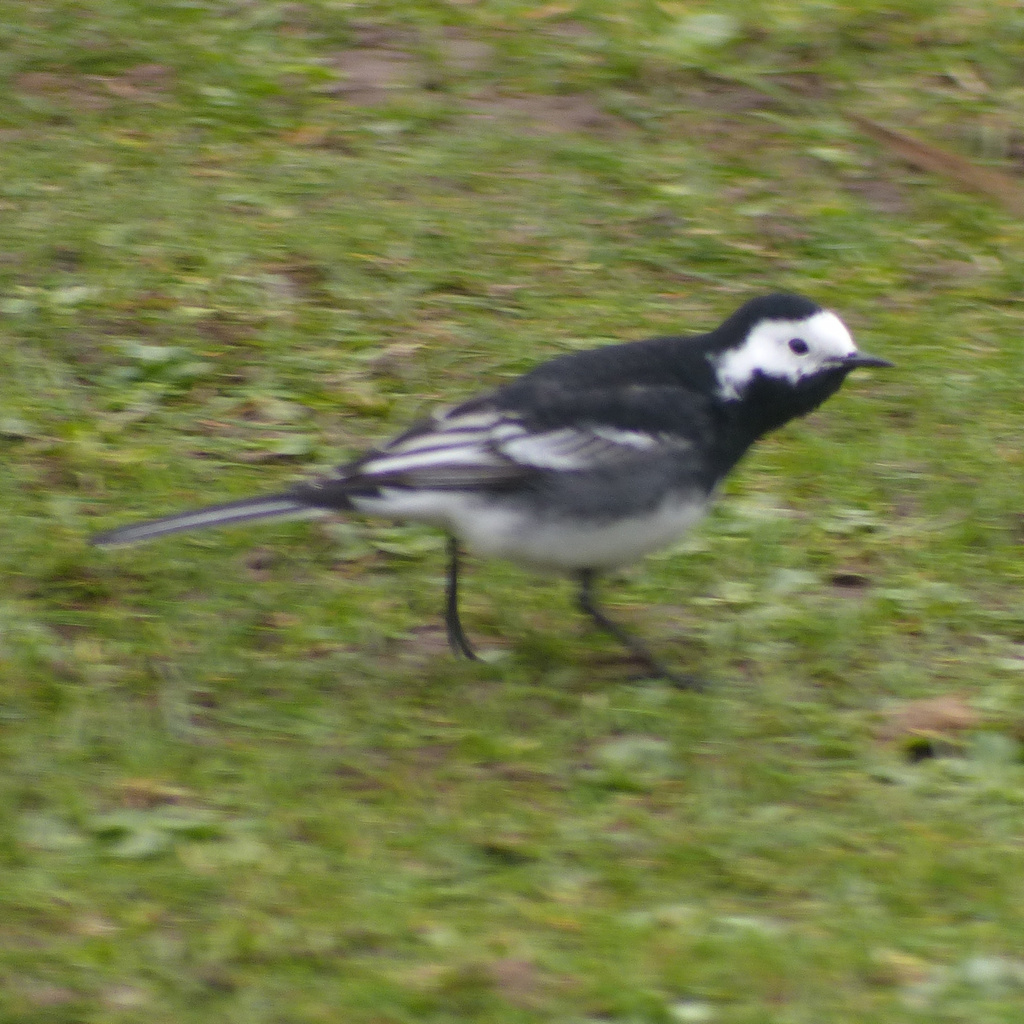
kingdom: Animalia
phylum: Chordata
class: Aves
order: Passeriformes
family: Motacillidae
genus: Motacilla
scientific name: Motacilla alba
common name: White wagtail
